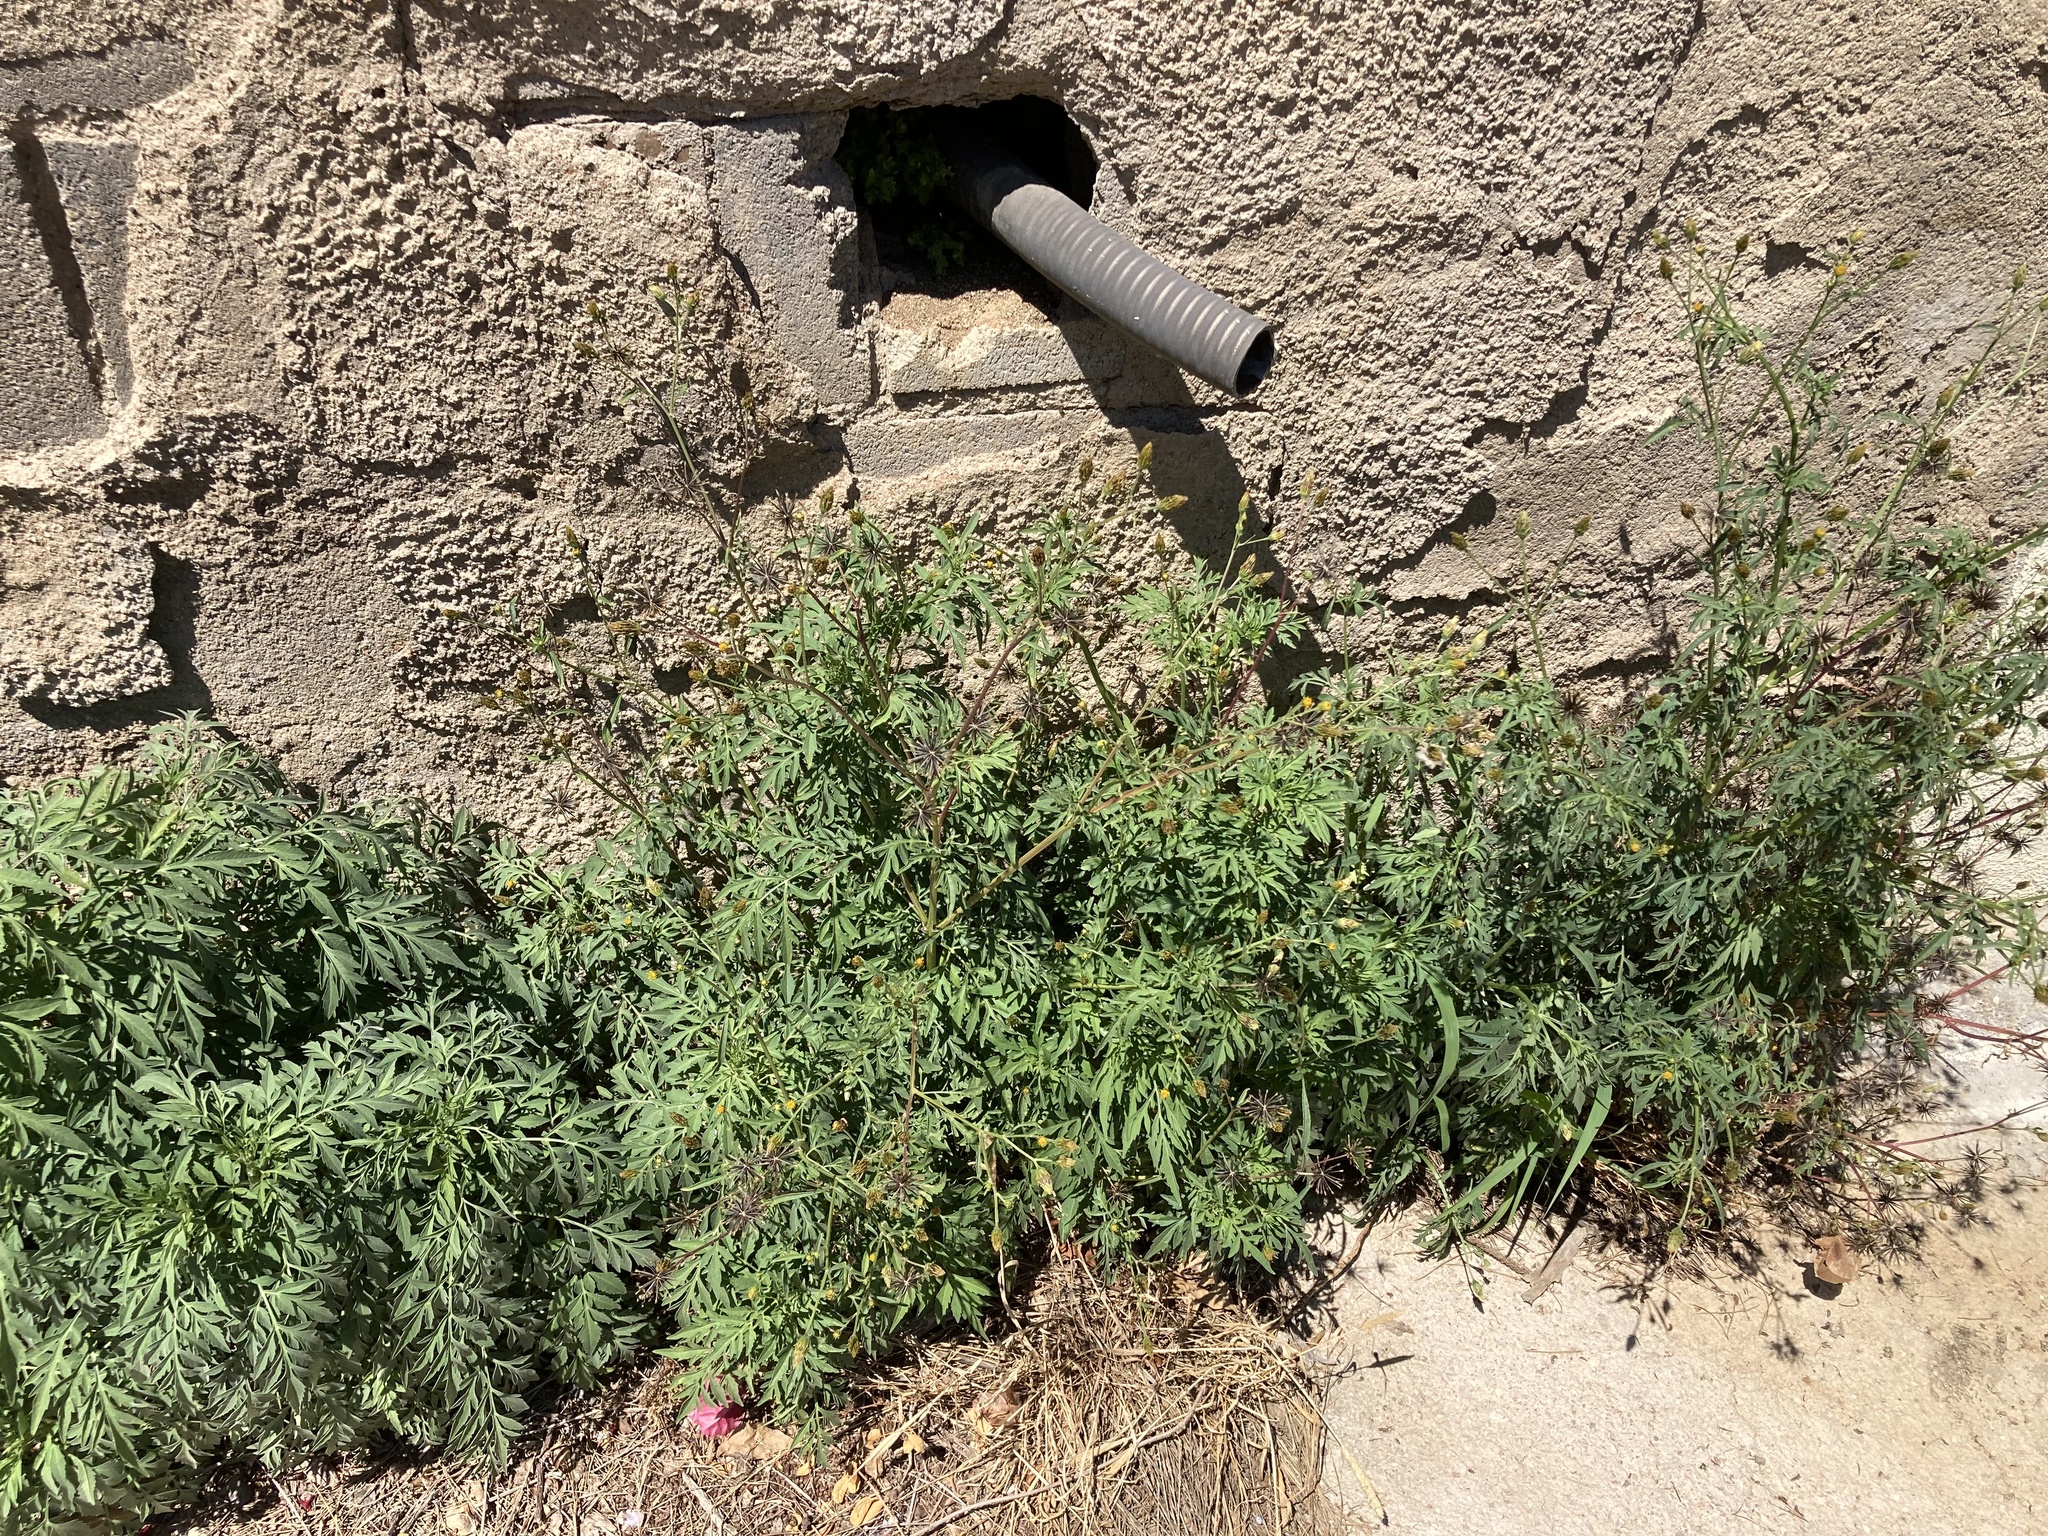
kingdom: Plantae
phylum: Tracheophyta
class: Magnoliopsida
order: Asterales
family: Asteraceae
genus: Bidens
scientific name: Bidens subalternans
